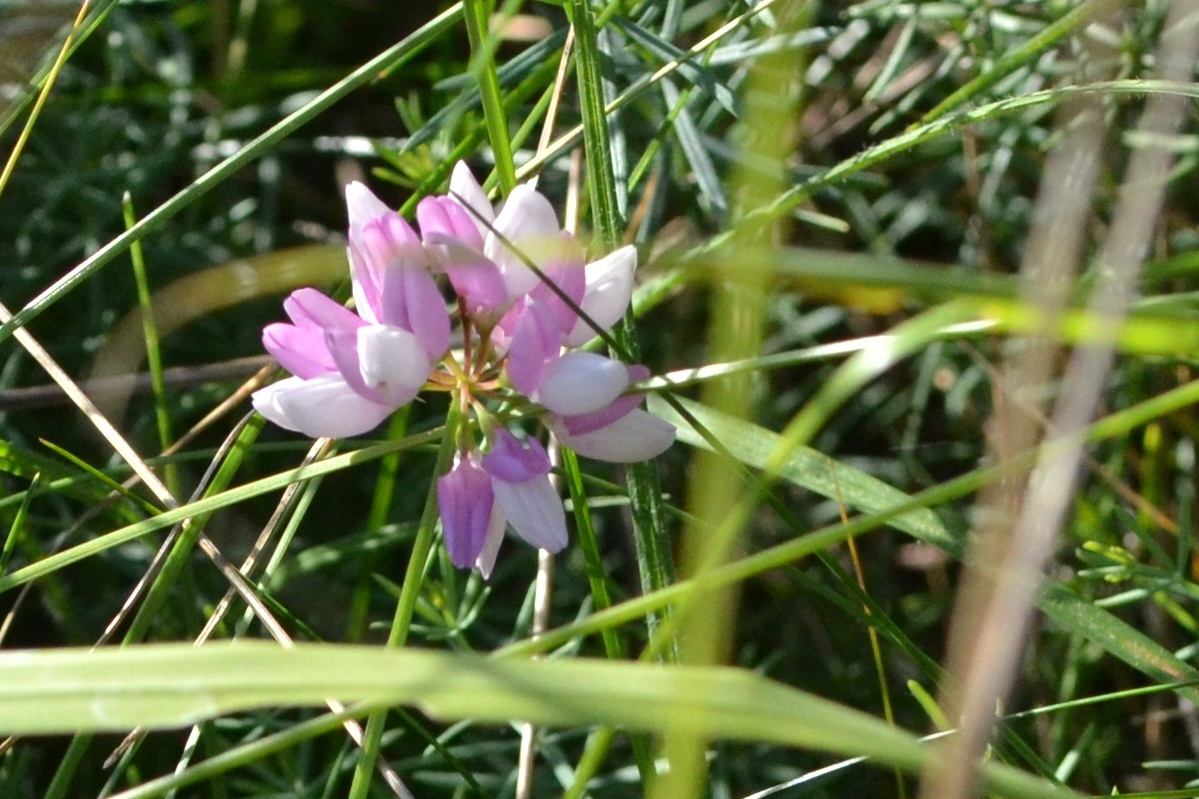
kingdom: Plantae
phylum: Tracheophyta
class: Magnoliopsida
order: Fabales
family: Fabaceae
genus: Coronilla
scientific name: Coronilla varia
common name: Crownvetch
